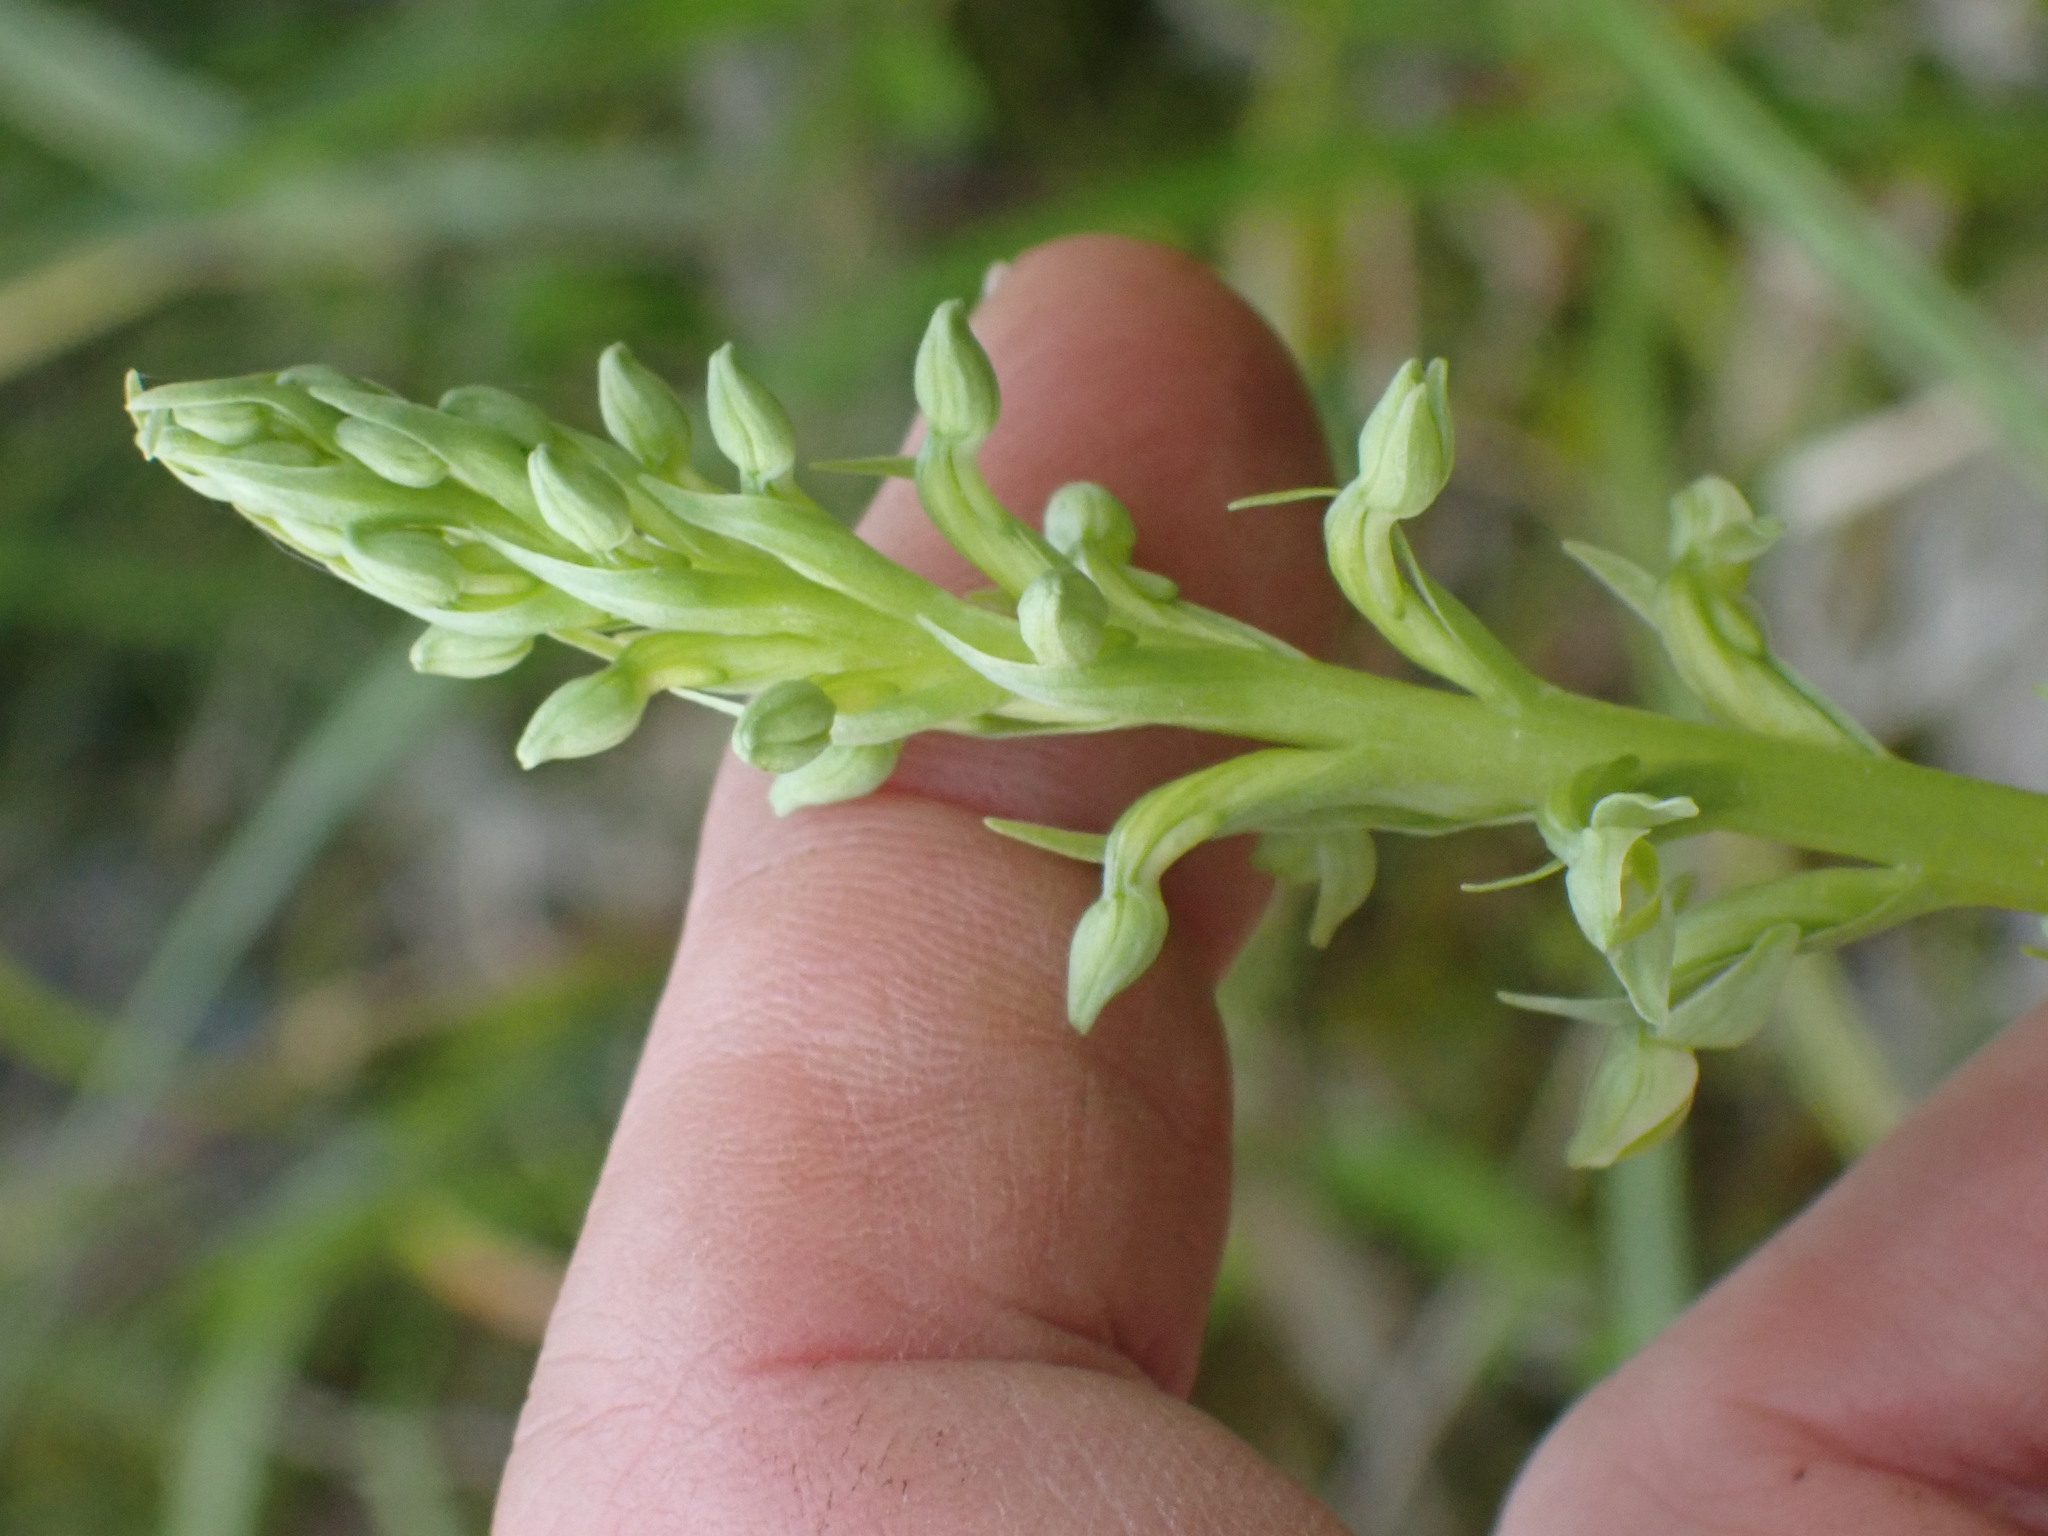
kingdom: Plantae
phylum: Tracheophyta
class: Liliopsida
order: Asparagales
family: Orchidaceae
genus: Platanthera
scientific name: Platanthera huronensis
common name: Fragrant green orchid
